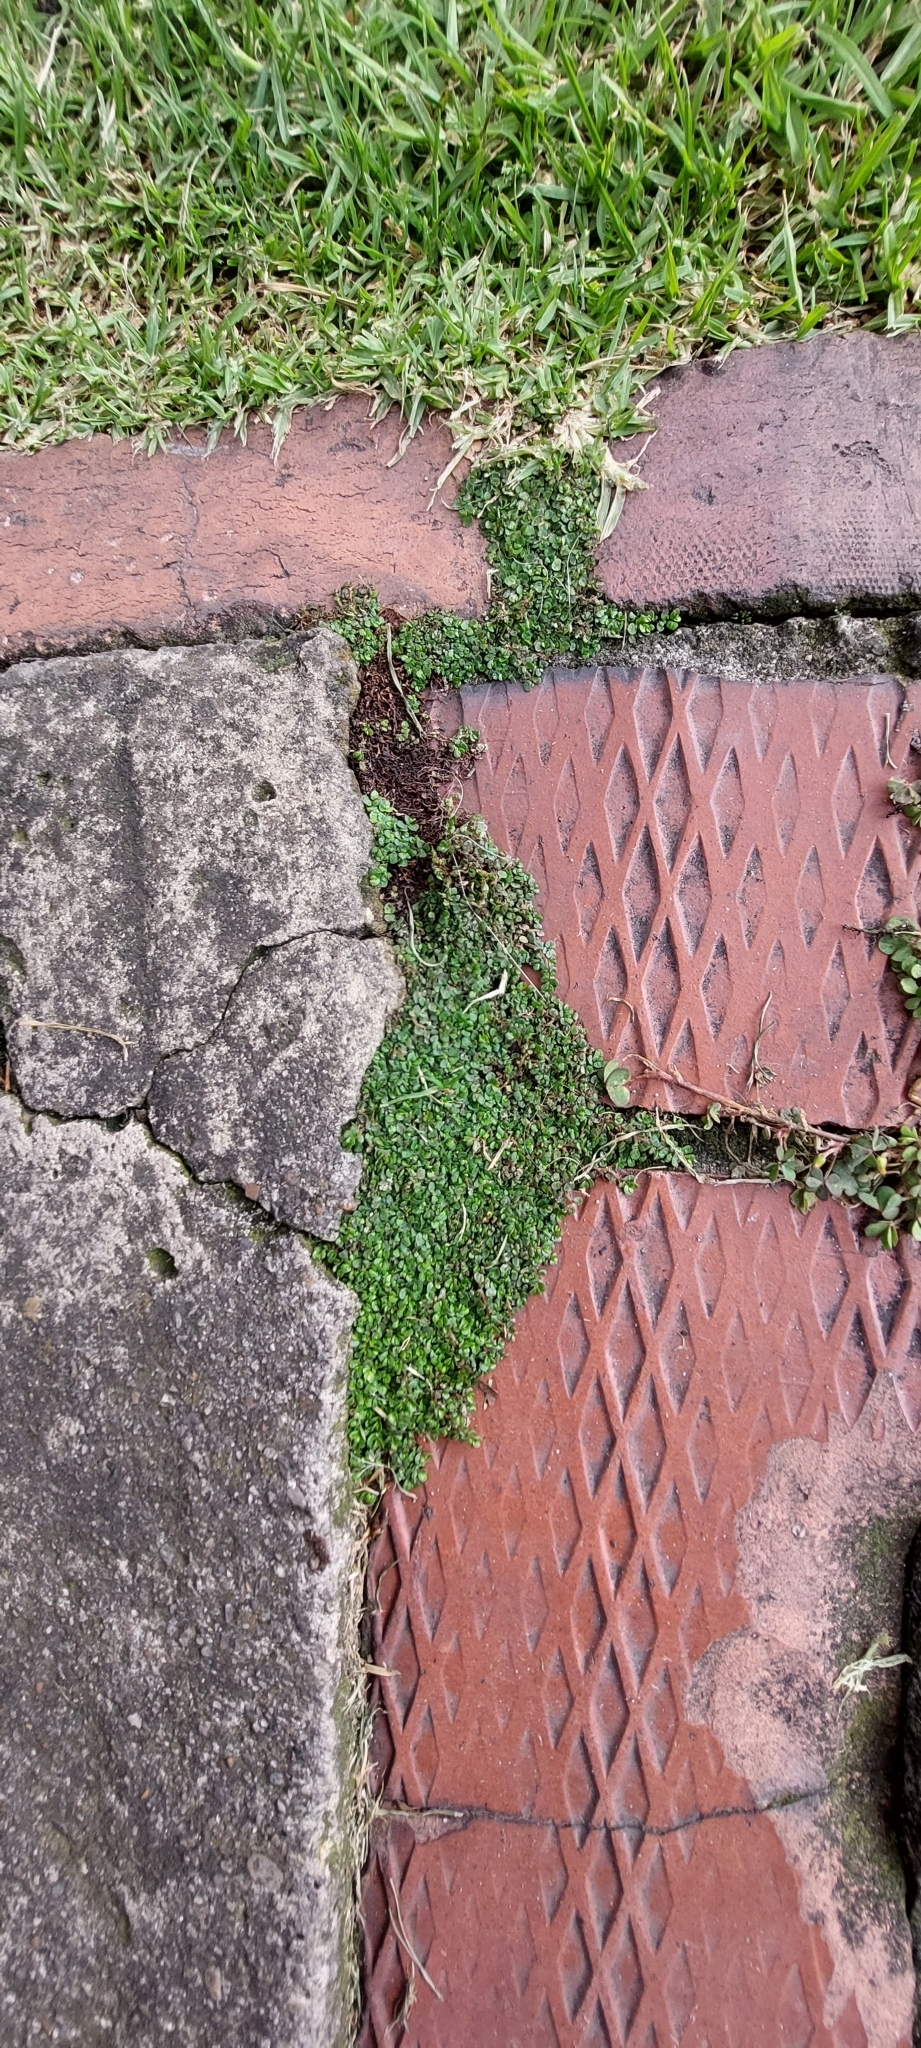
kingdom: Plantae
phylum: Tracheophyta
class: Magnoliopsida
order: Rosales
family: Urticaceae
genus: Soleirolia
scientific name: Soleirolia soleirolii
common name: Mind-your-own-business
